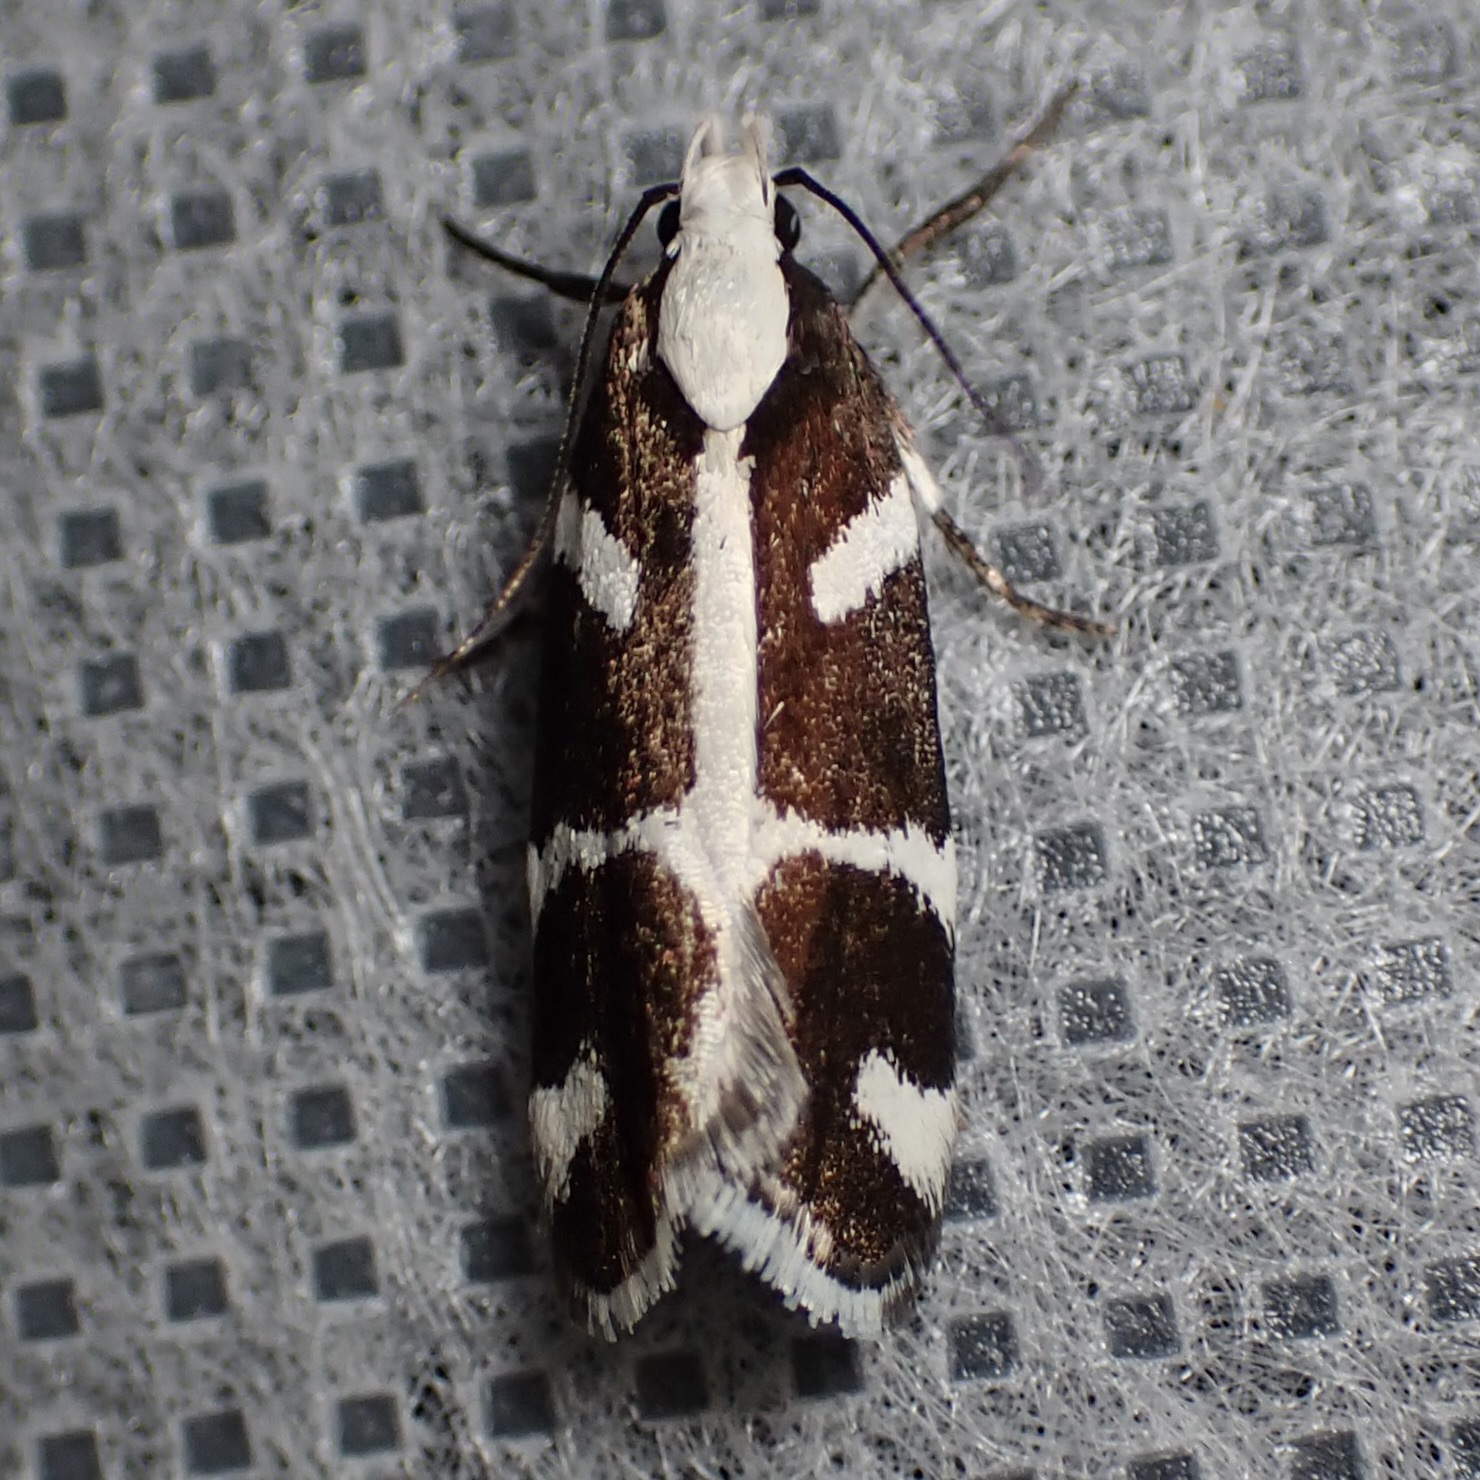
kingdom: Animalia
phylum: Arthropoda
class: Insecta
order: Lepidoptera
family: Gelechiidae
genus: Epilechia
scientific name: Epilechia catalinella
